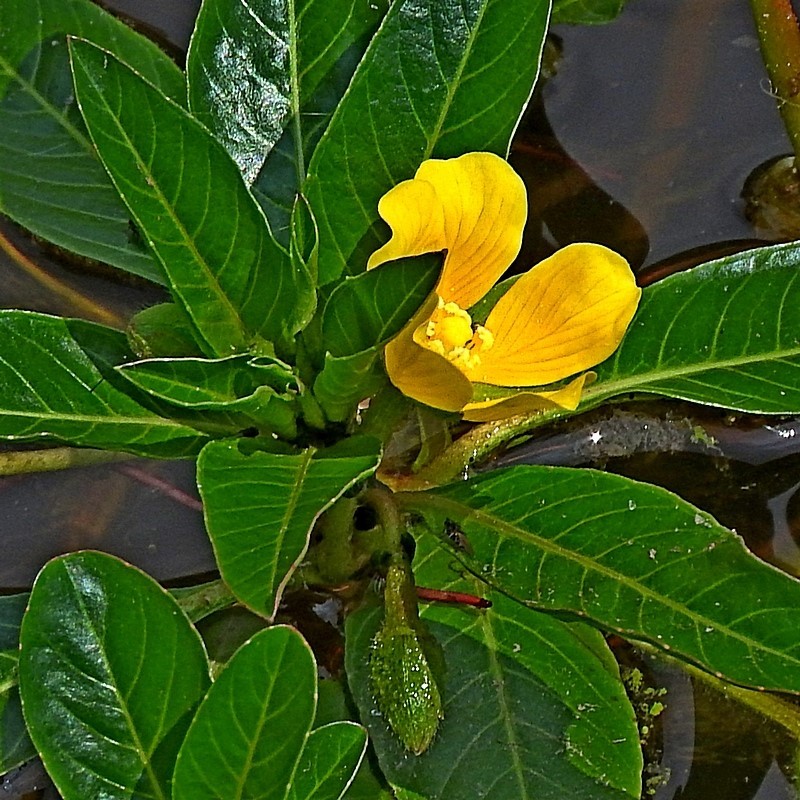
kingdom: Plantae
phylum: Tracheophyta
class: Magnoliopsida
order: Myrtales
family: Onagraceae
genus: Ludwigia
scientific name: Ludwigia peploides
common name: Floating primrose-willow
